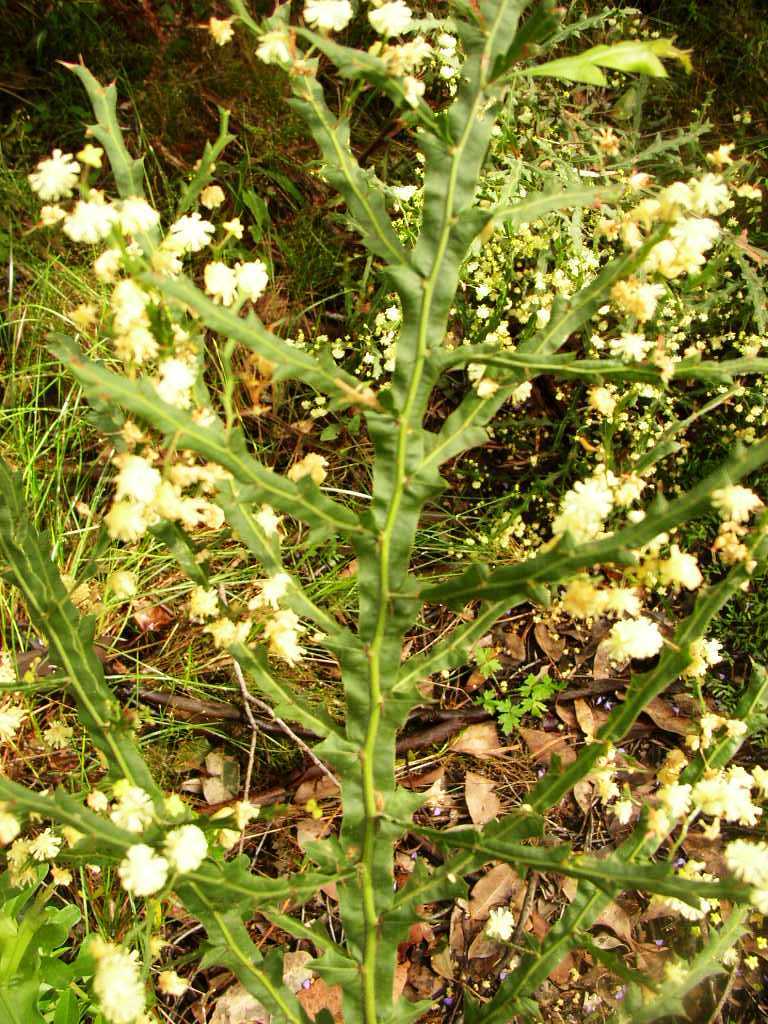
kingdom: Plantae
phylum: Tracheophyta
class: Magnoliopsida
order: Fabales
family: Fabaceae
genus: Acacia
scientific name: Acacia alata
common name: Winged wattle
